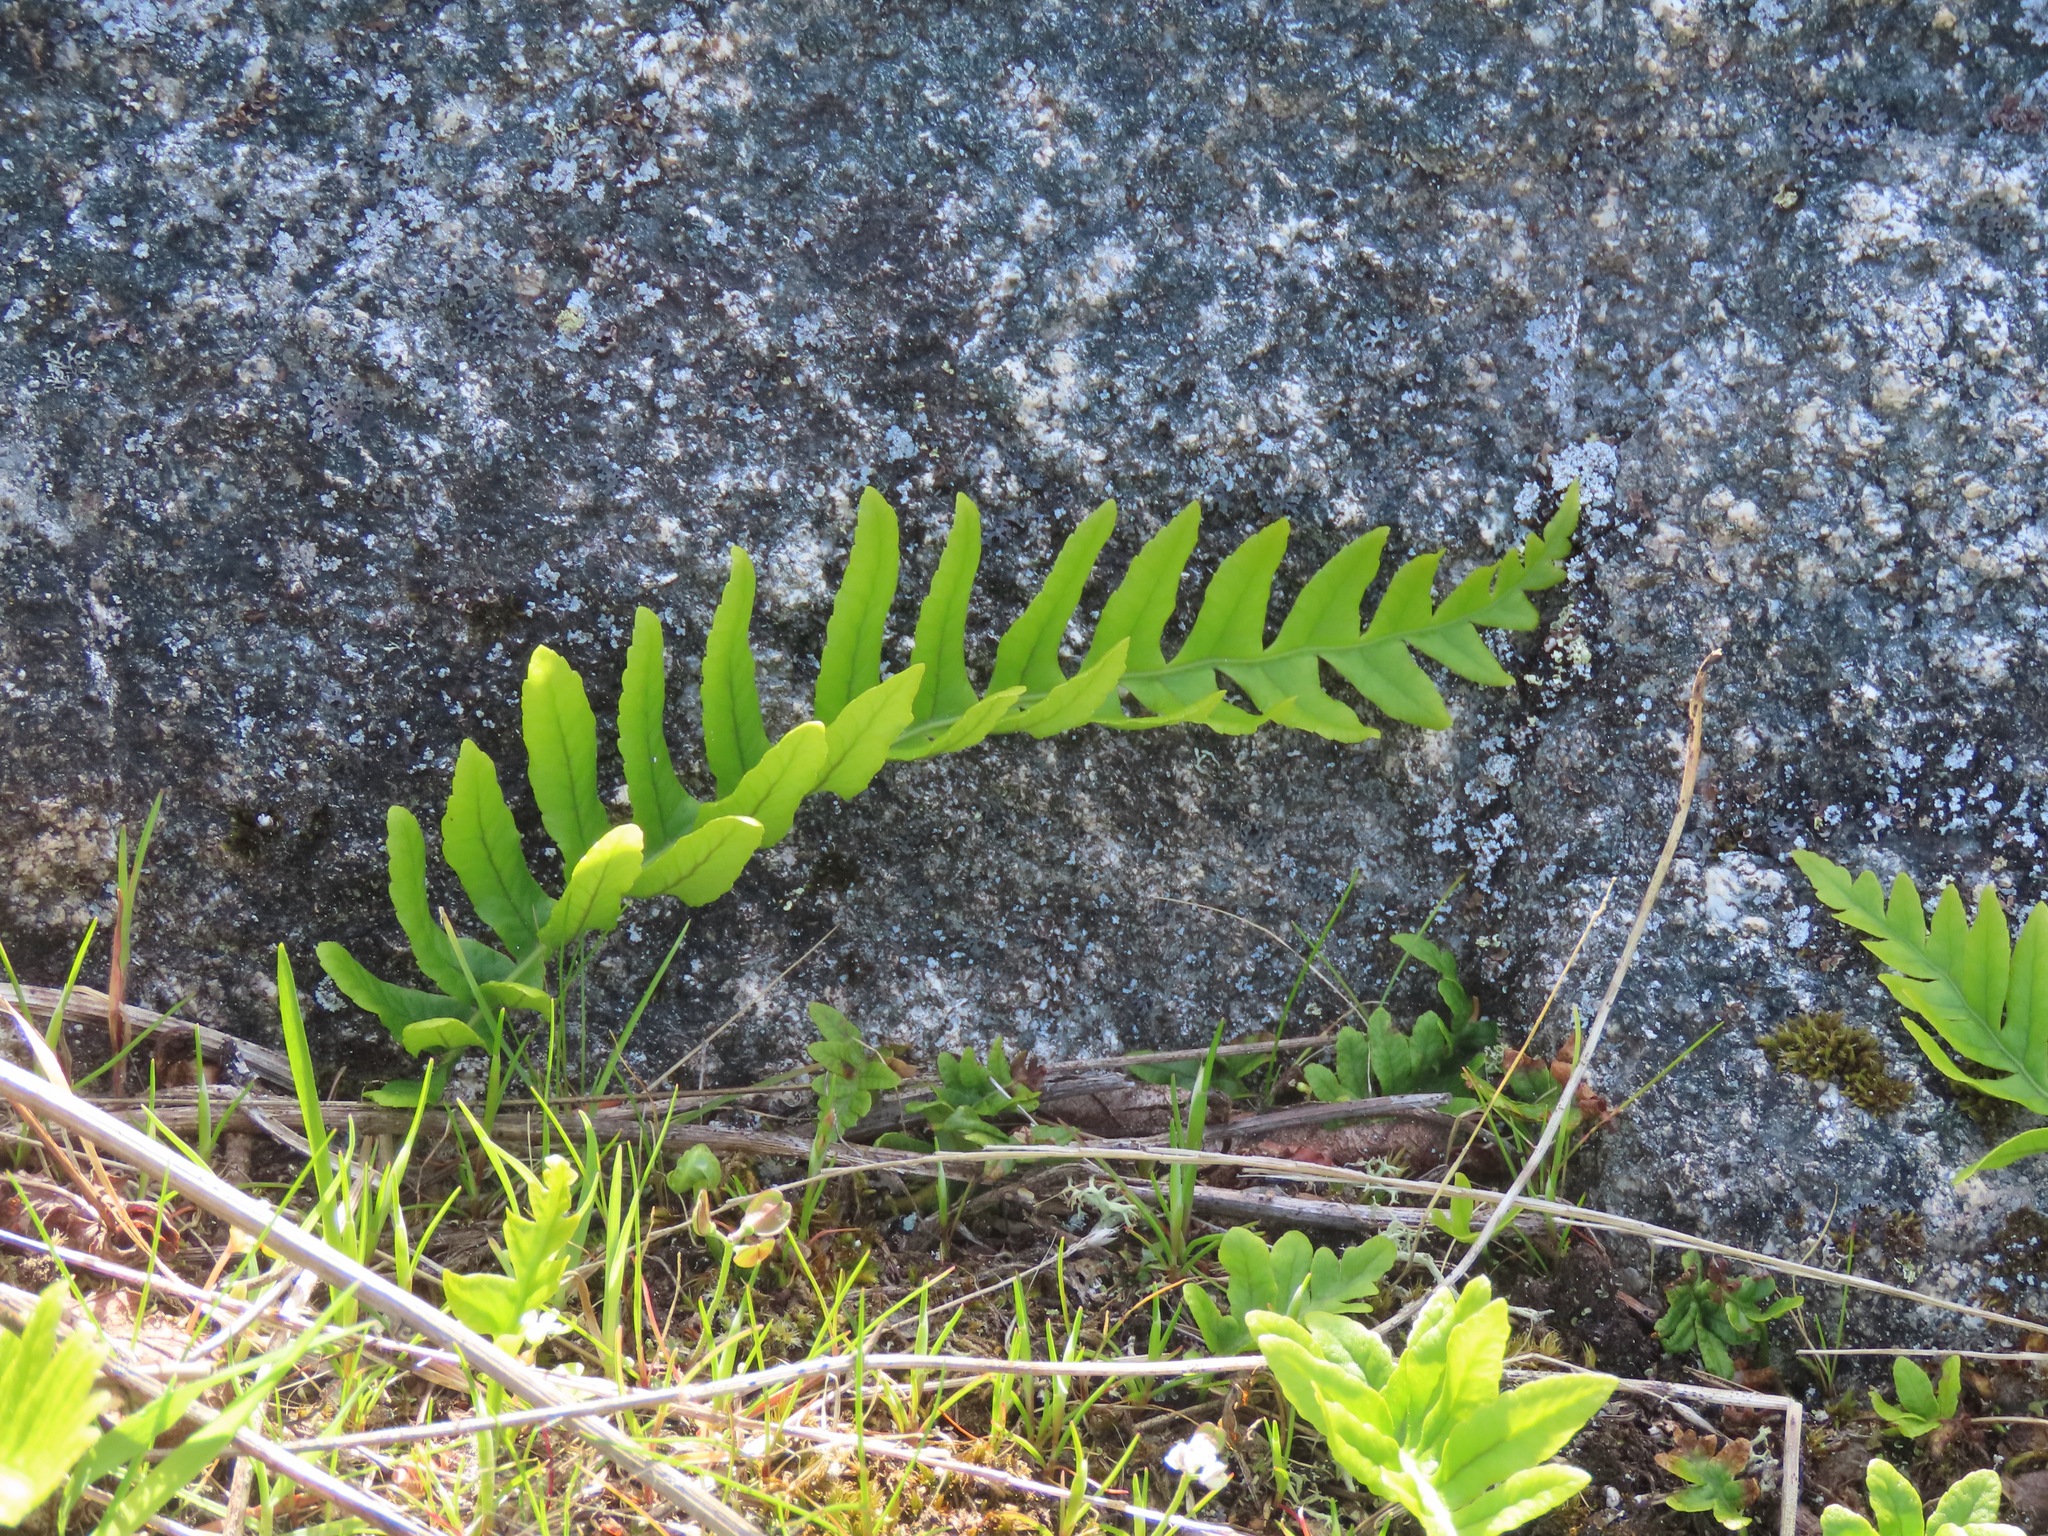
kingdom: Plantae
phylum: Tracheophyta
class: Polypodiopsida
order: Polypodiales
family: Polypodiaceae
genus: Polypodium
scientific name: Polypodium glycyrrhiza
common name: Licorice fern
